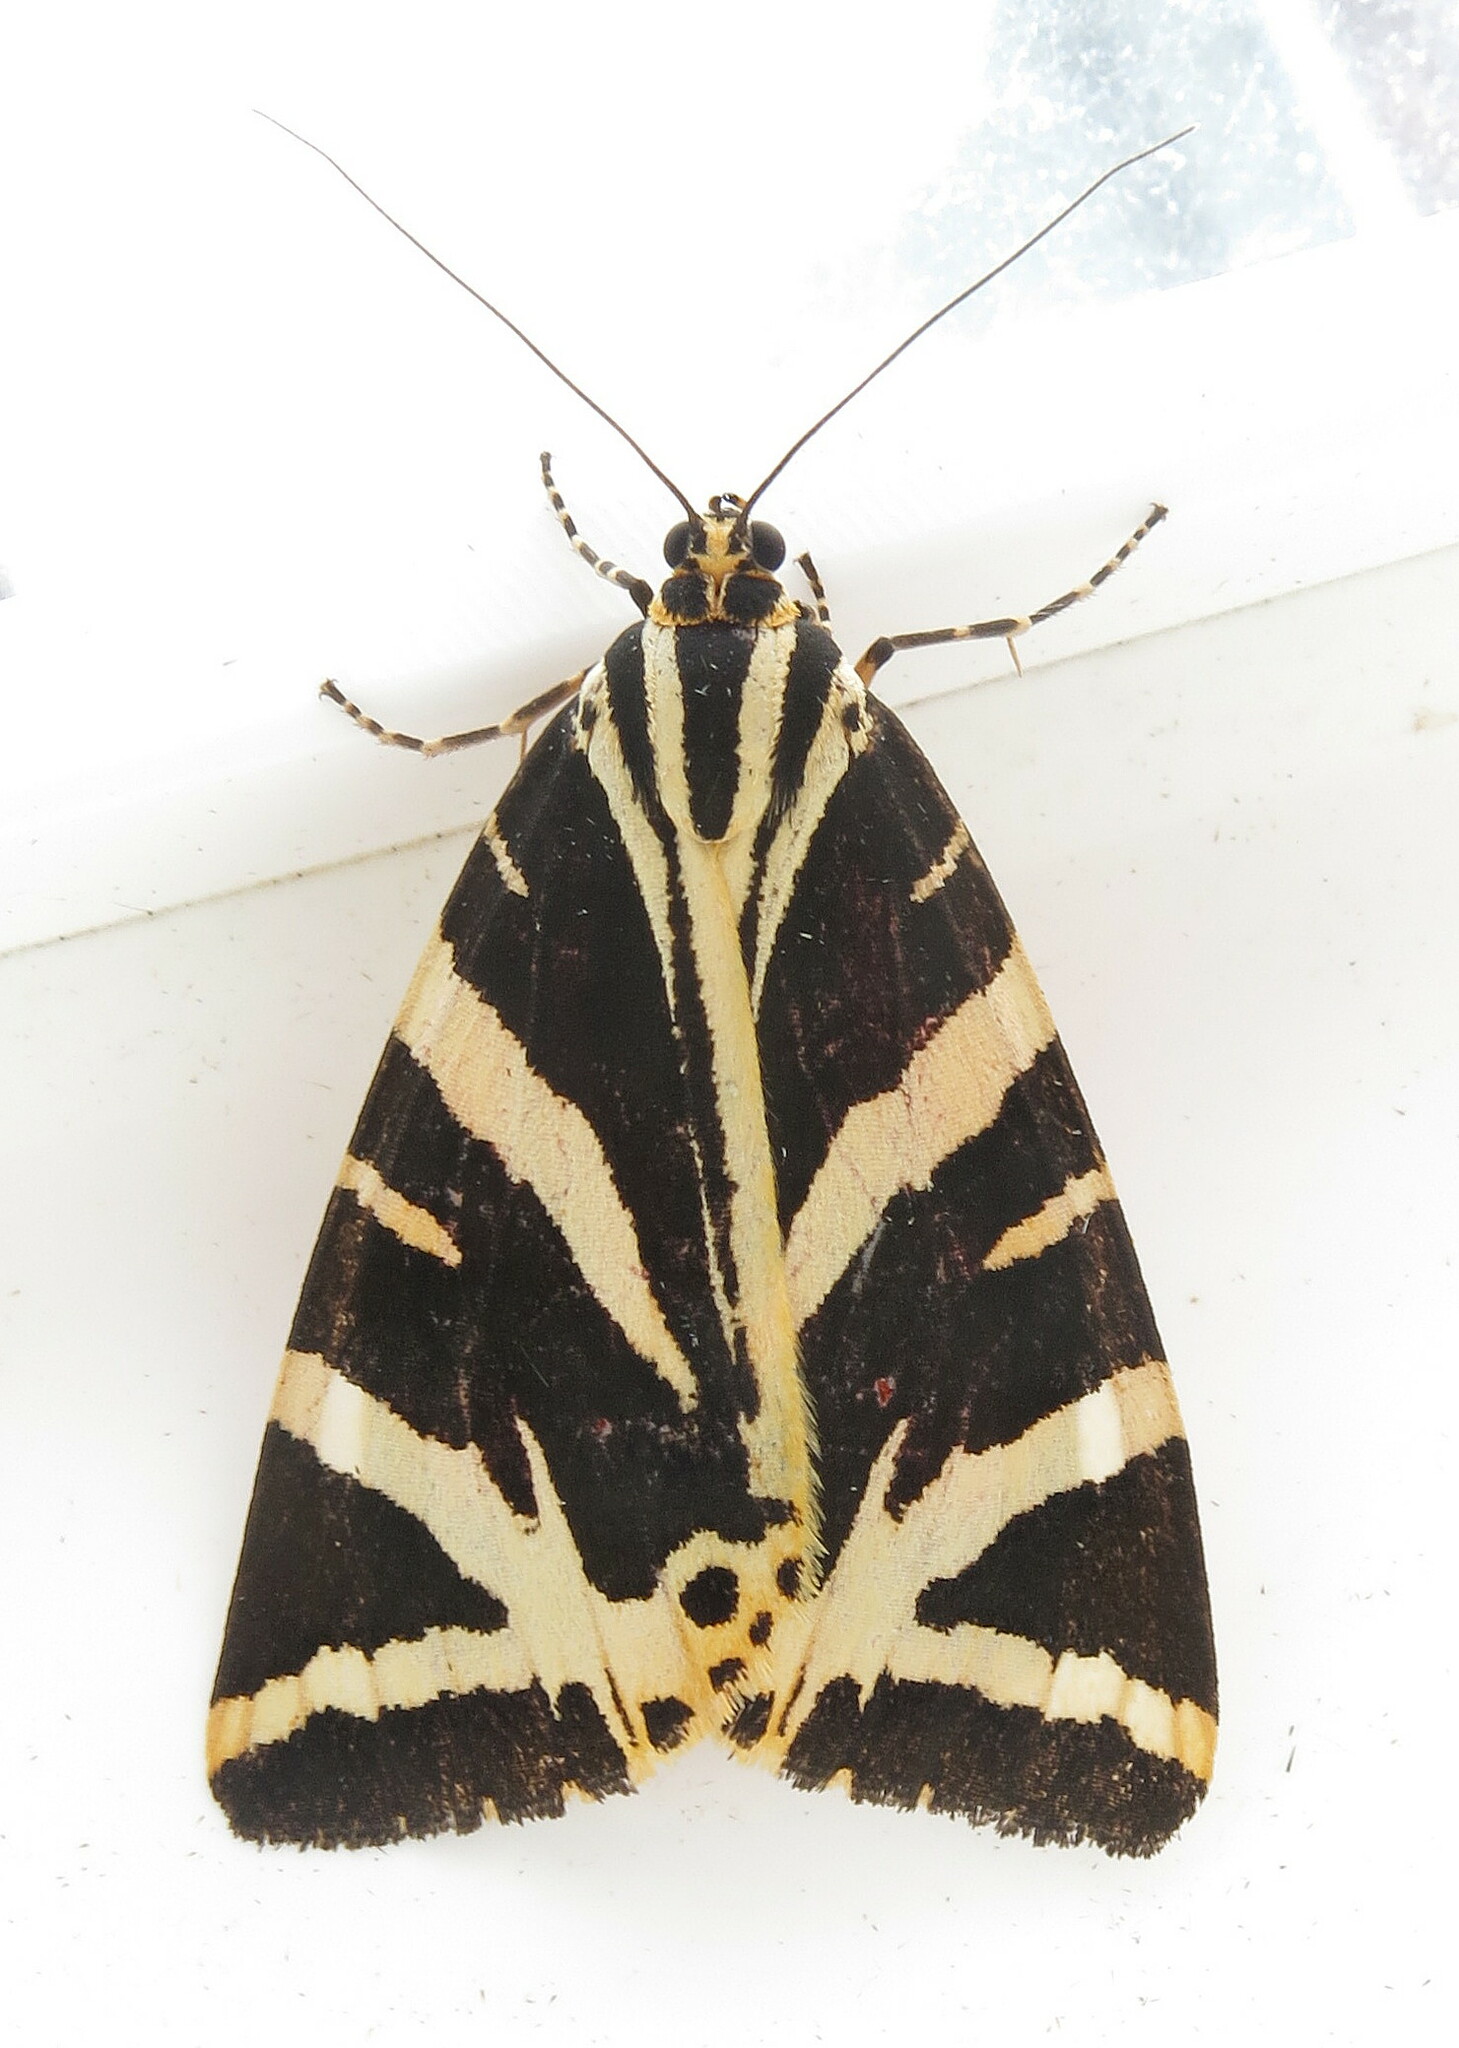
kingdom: Animalia
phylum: Arthropoda
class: Insecta
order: Lepidoptera
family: Erebidae
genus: Euplagia
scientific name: Euplagia quadripunctaria
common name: Jersey tiger
